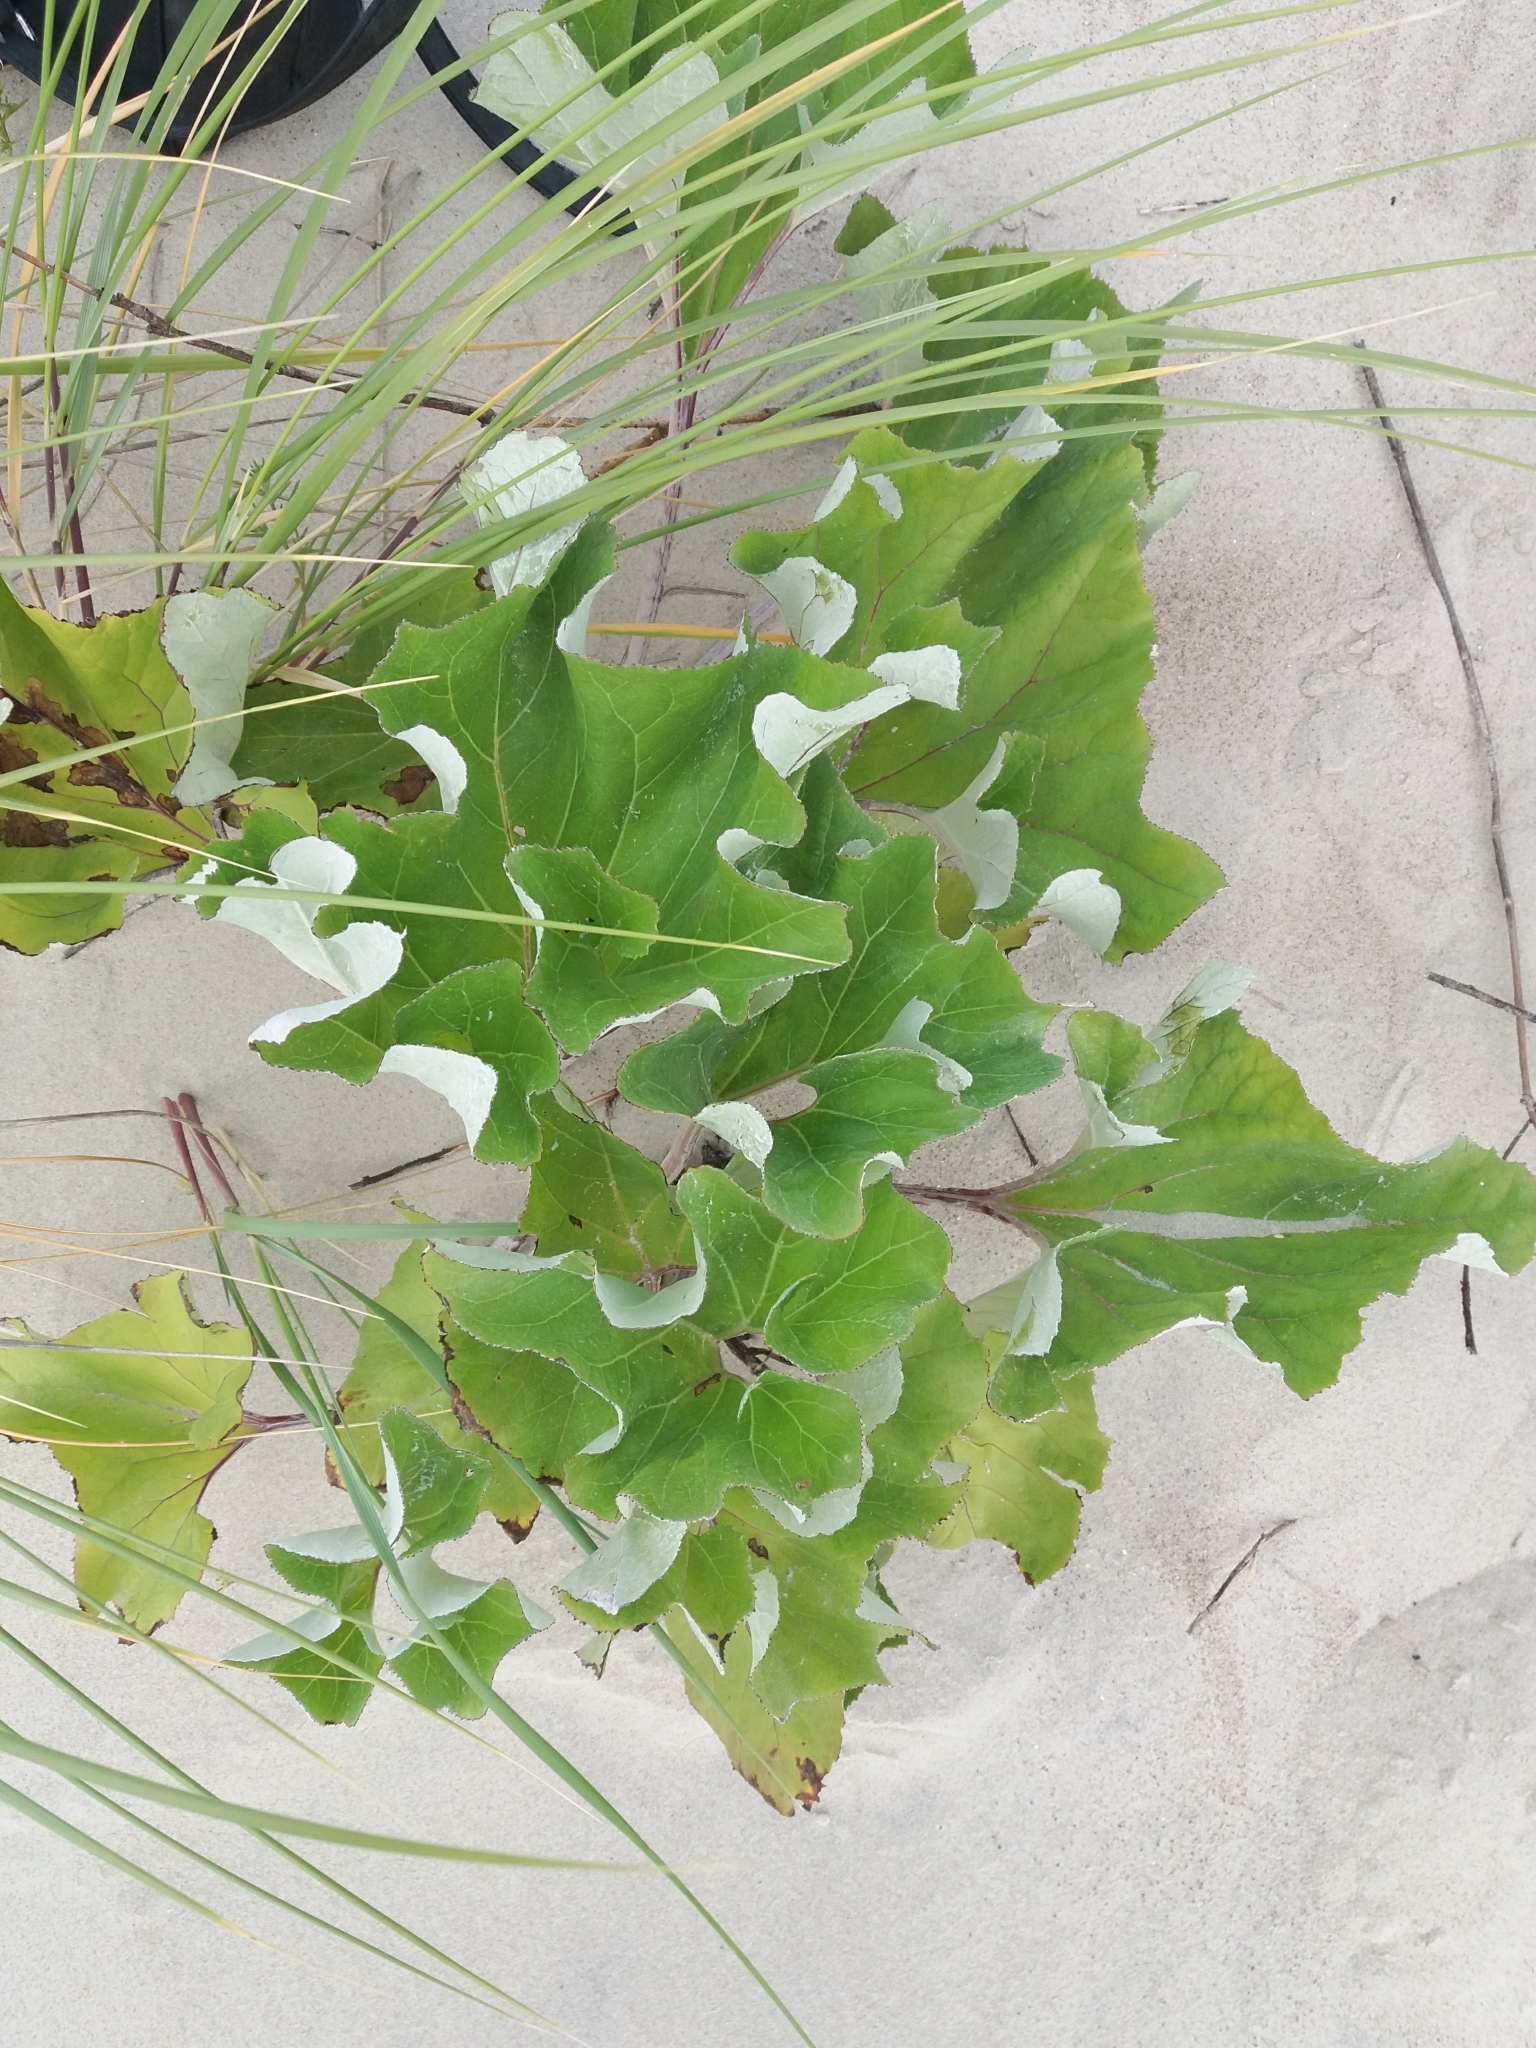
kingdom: Plantae
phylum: Tracheophyta
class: Magnoliopsida
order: Asterales
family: Asteraceae
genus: Petasites
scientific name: Petasites spurius
